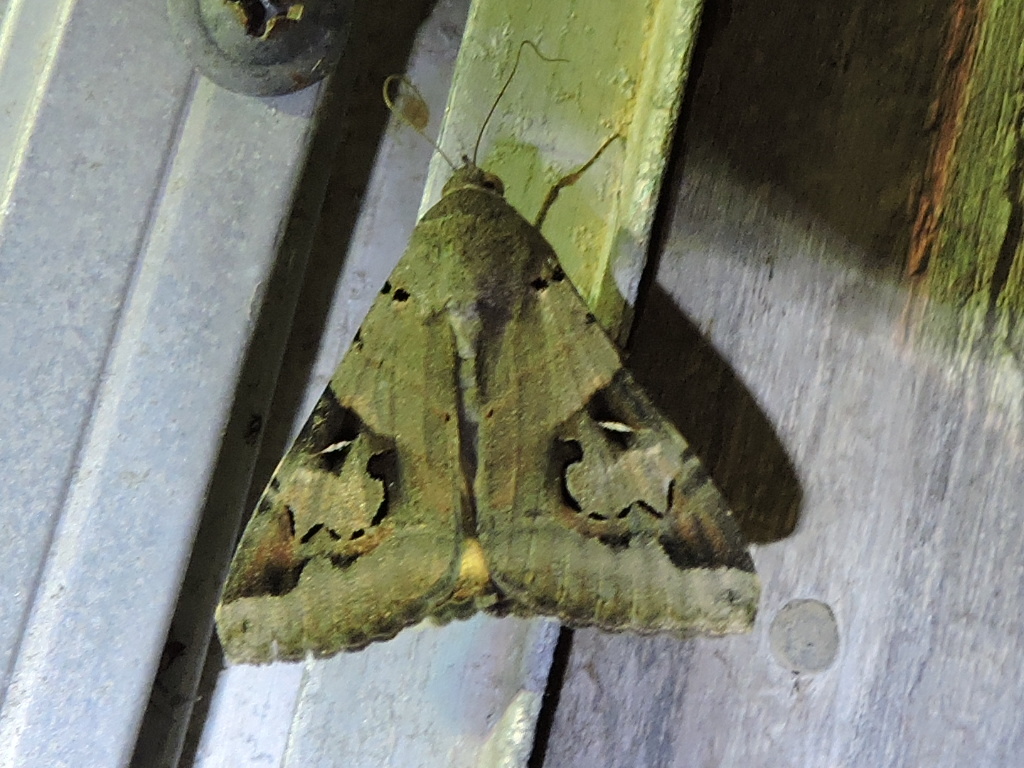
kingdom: Animalia
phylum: Arthropoda
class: Insecta
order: Lepidoptera
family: Erebidae
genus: Melipotis
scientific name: Melipotis indomita
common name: Moth
